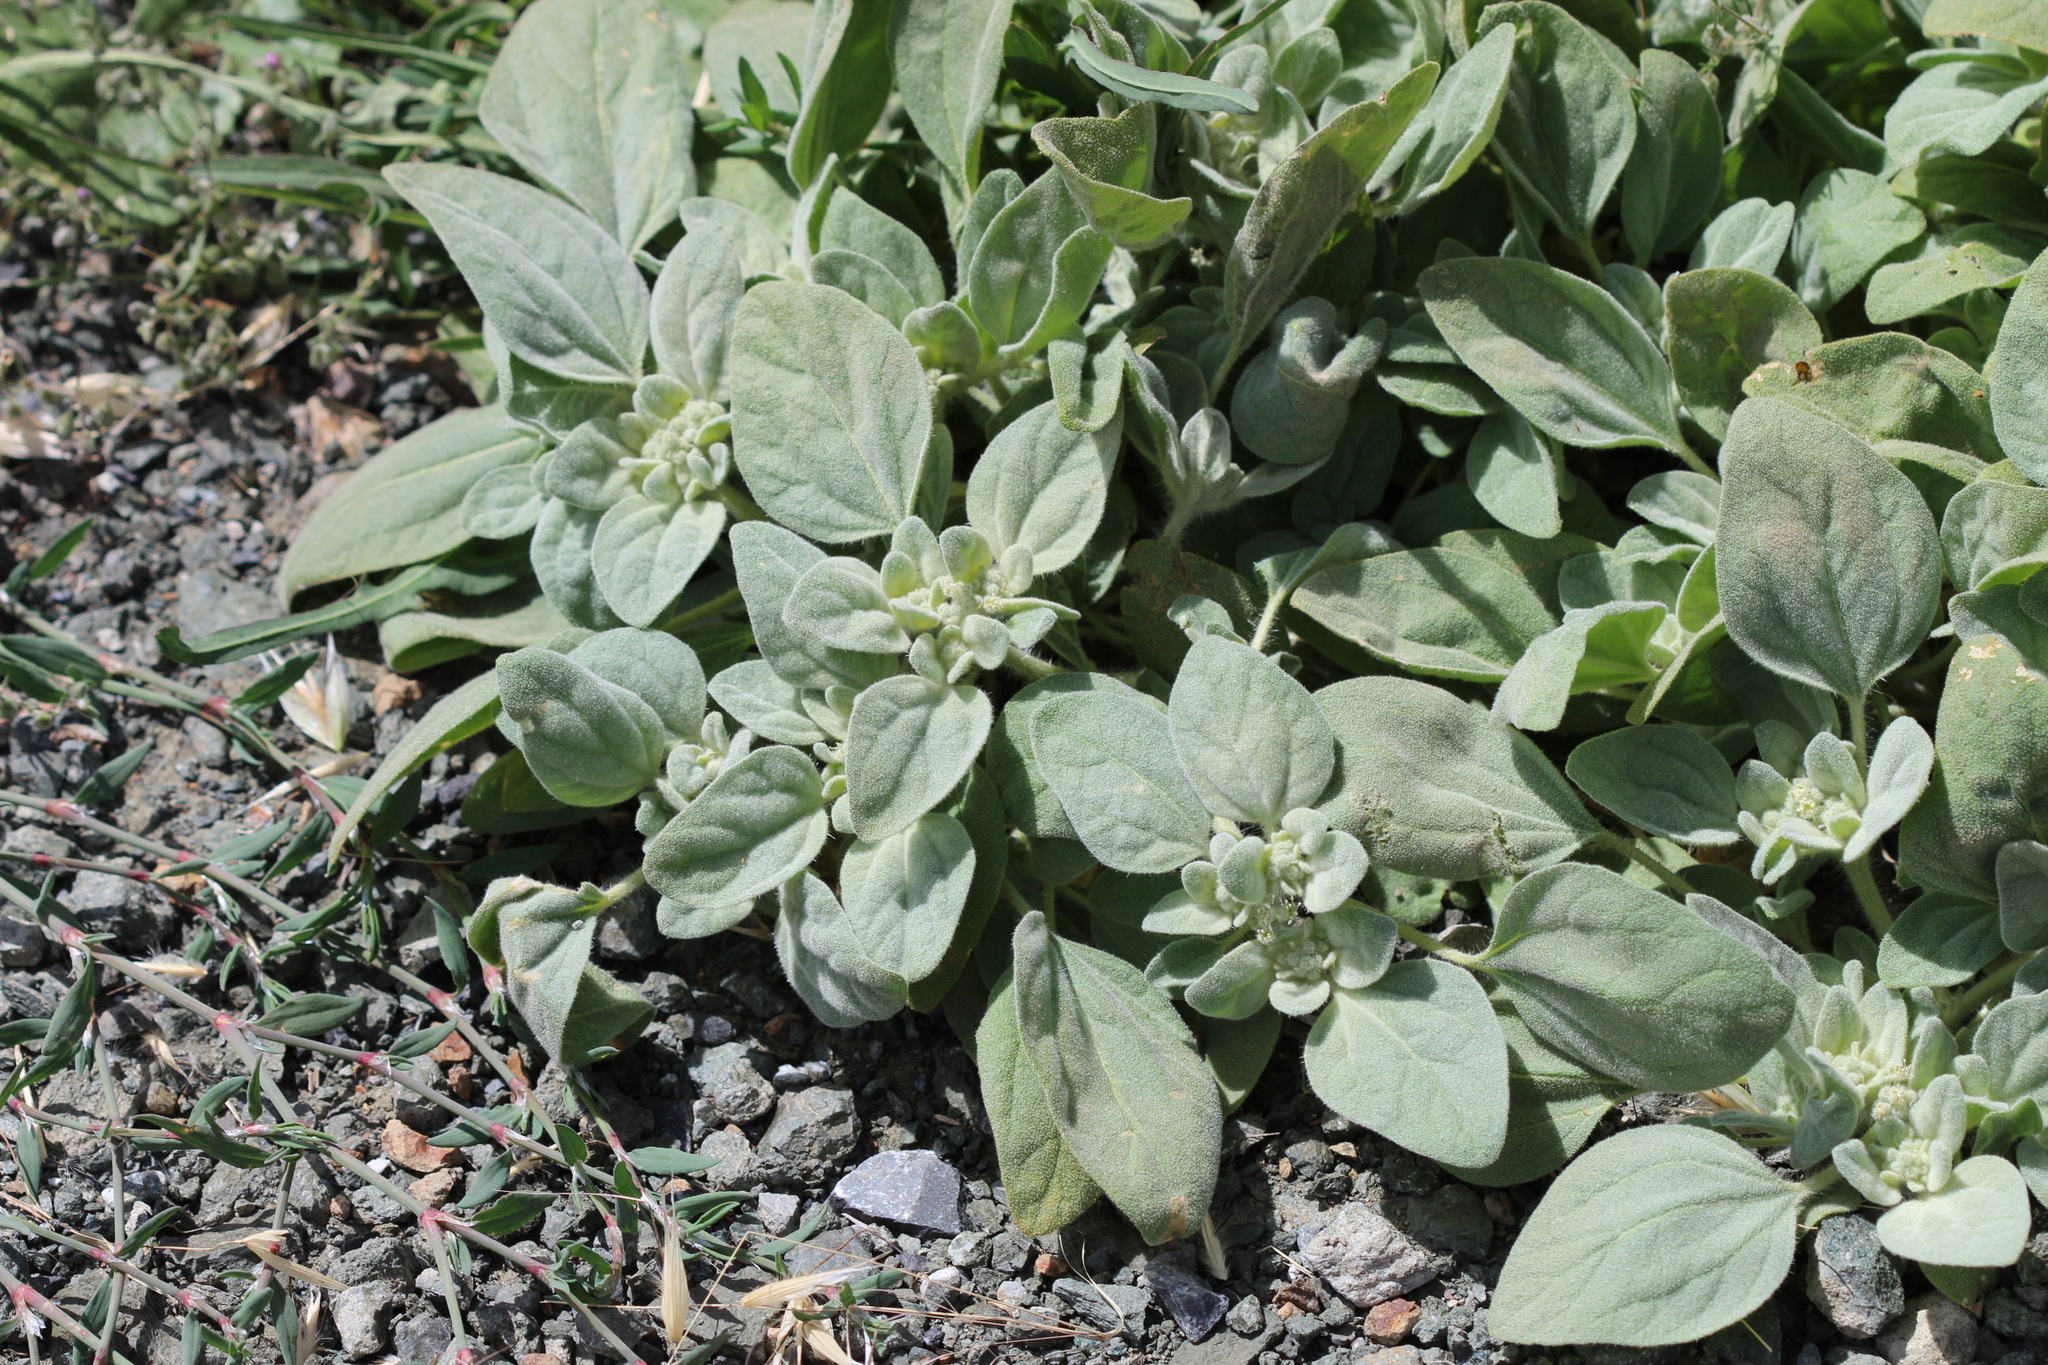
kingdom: Plantae
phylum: Tracheophyta
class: Magnoliopsida
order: Malpighiales
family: Euphorbiaceae
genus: Croton
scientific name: Croton setiger
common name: Dove weed
